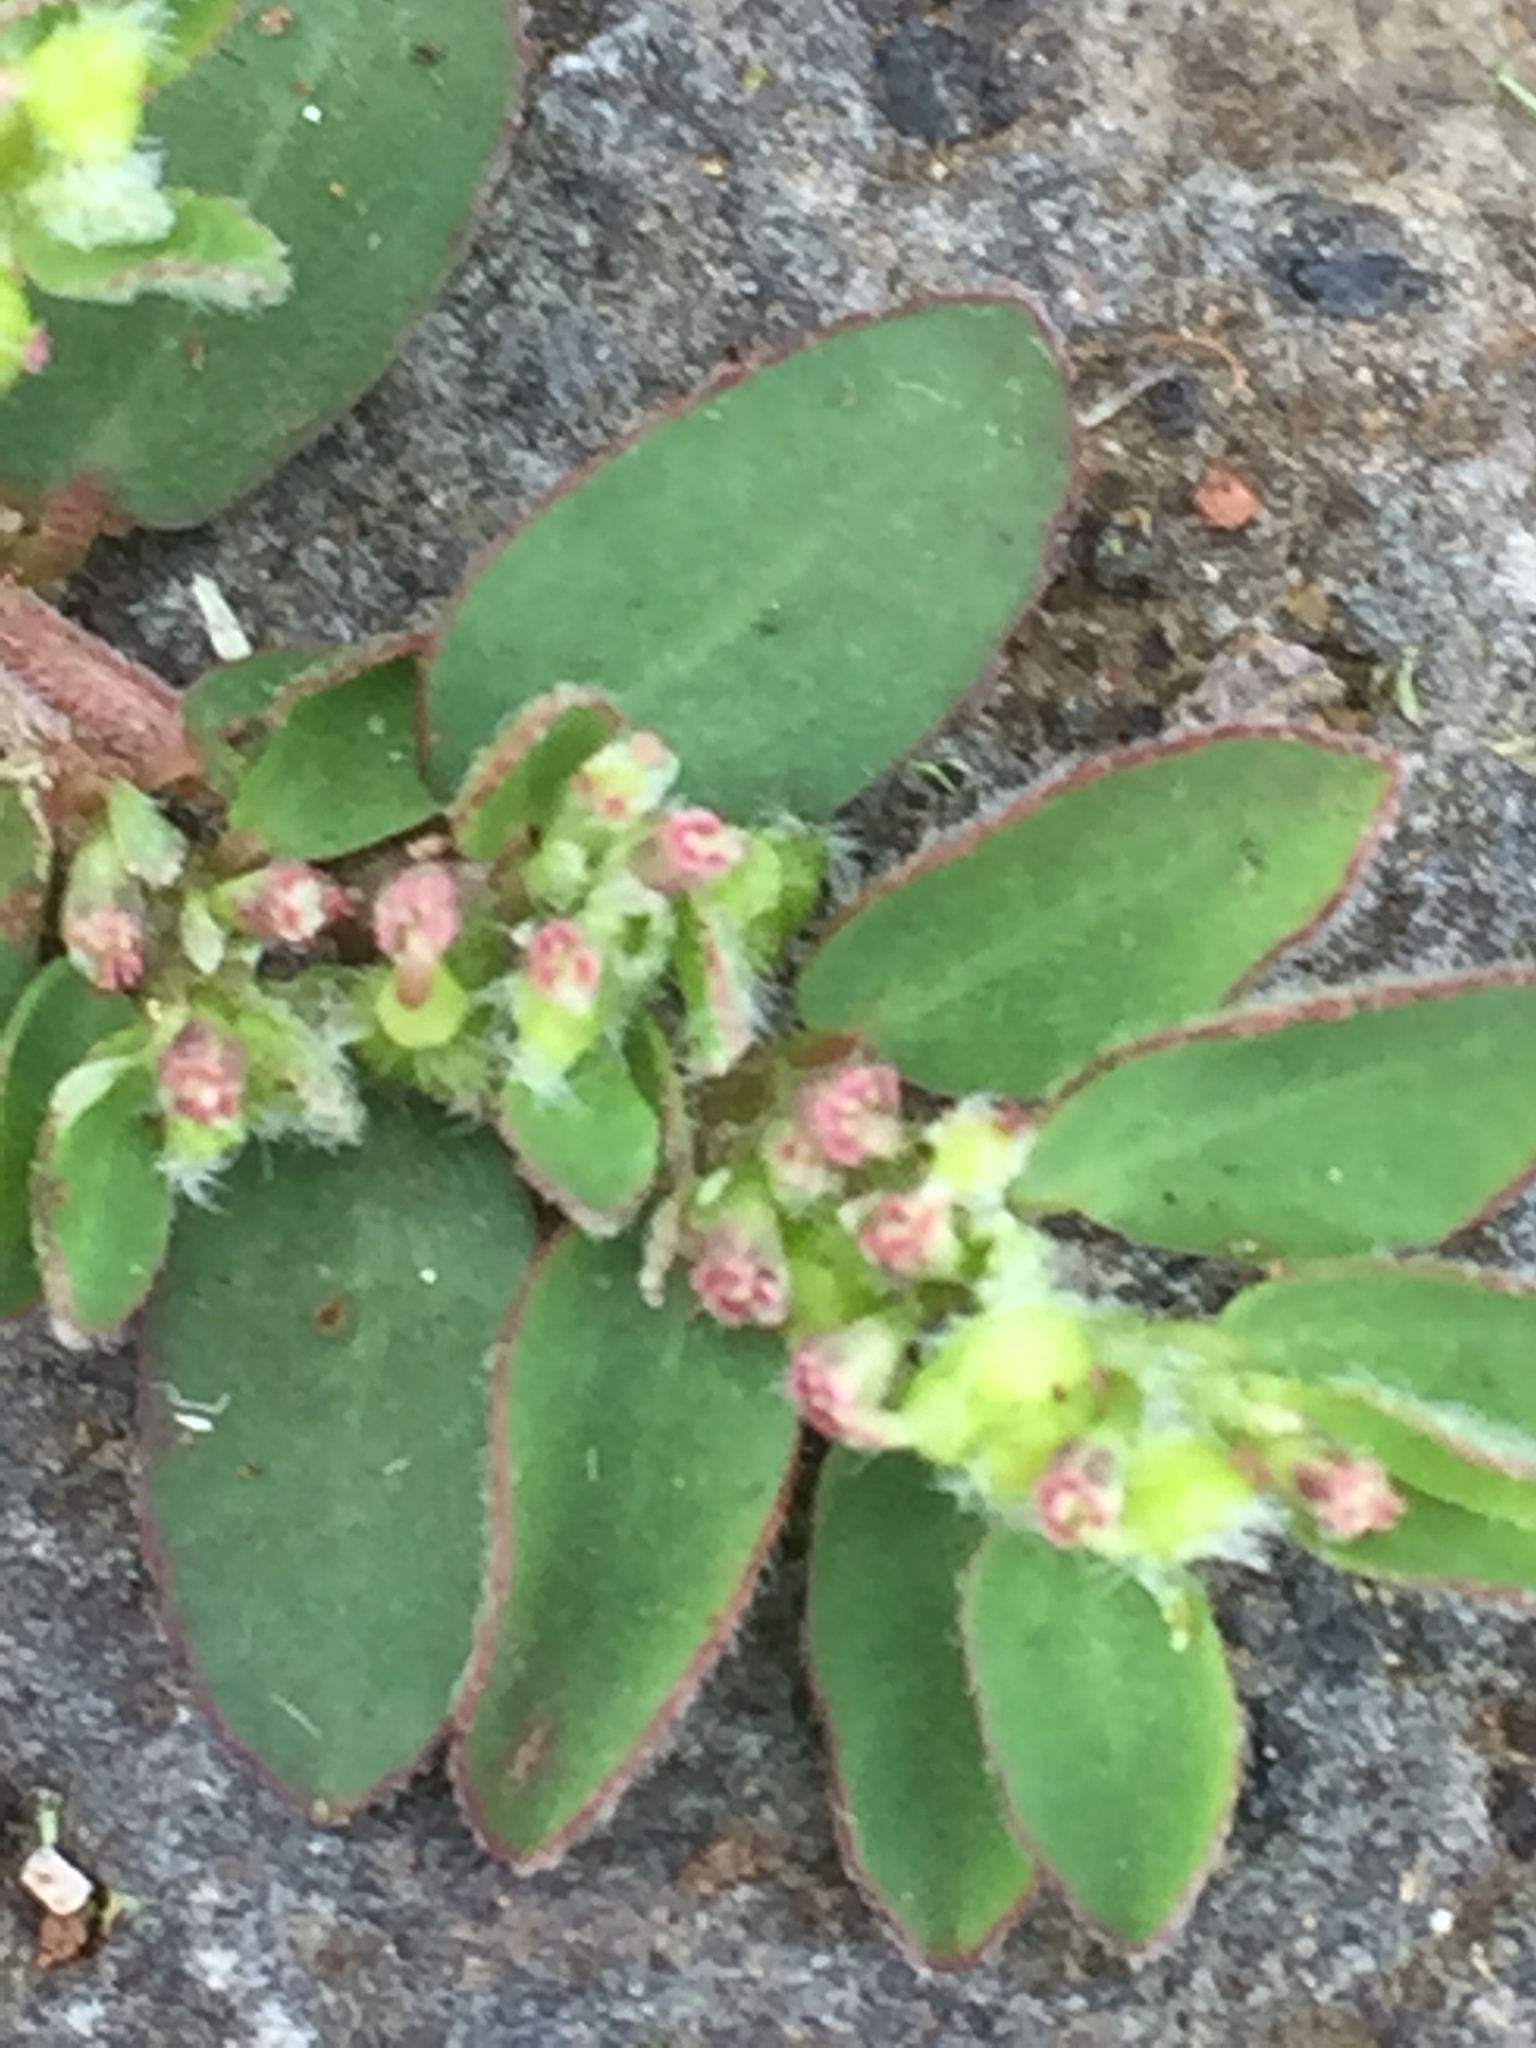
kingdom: Plantae
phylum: Tracheophyta
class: Magnoliopsida
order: Malpighiales
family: Euphorbiaceae
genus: Euphorbia
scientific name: Euphorbia prostrata
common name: Prostrate sandmat
